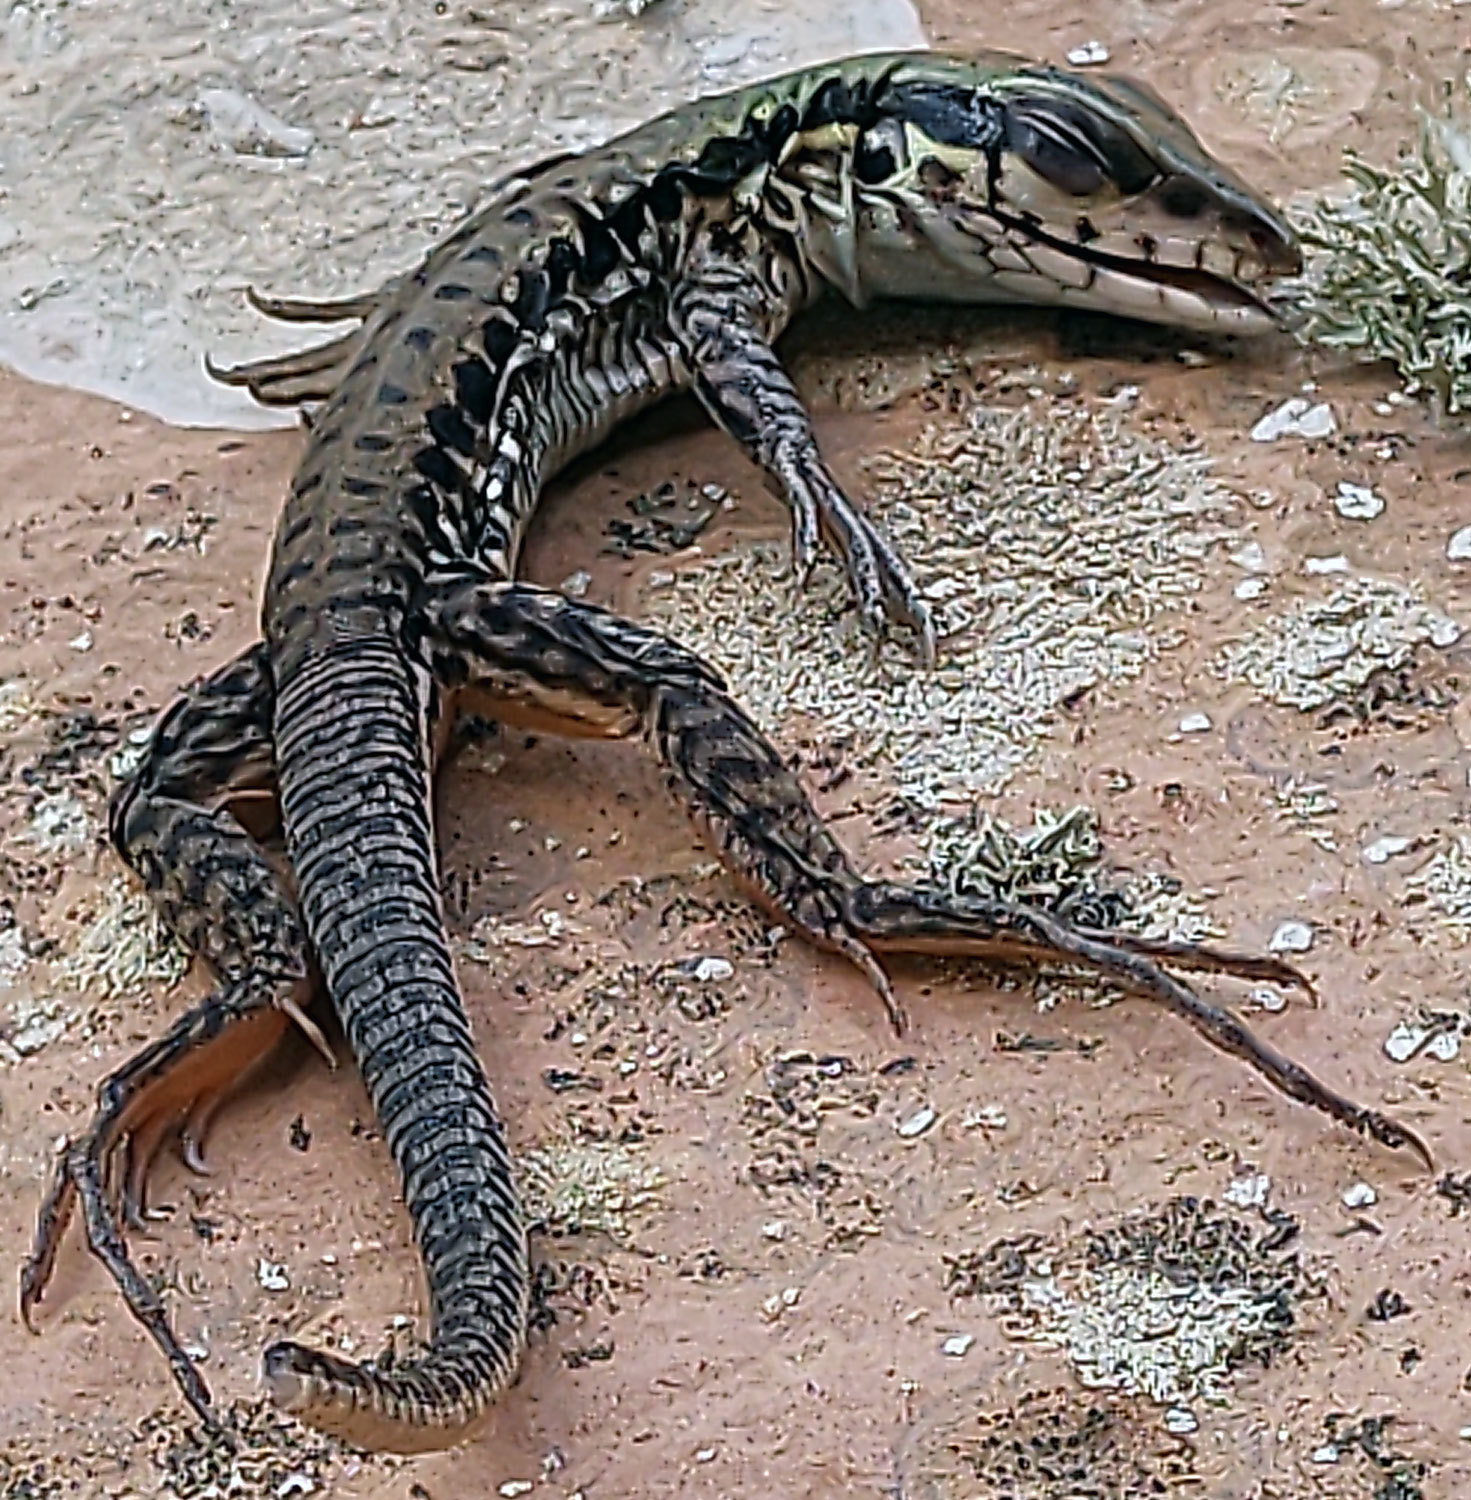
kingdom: Animalia
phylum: Chordata
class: Squamata
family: Teiidae
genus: Ameiva
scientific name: Ameiva ameiva
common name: Giant ameiva
